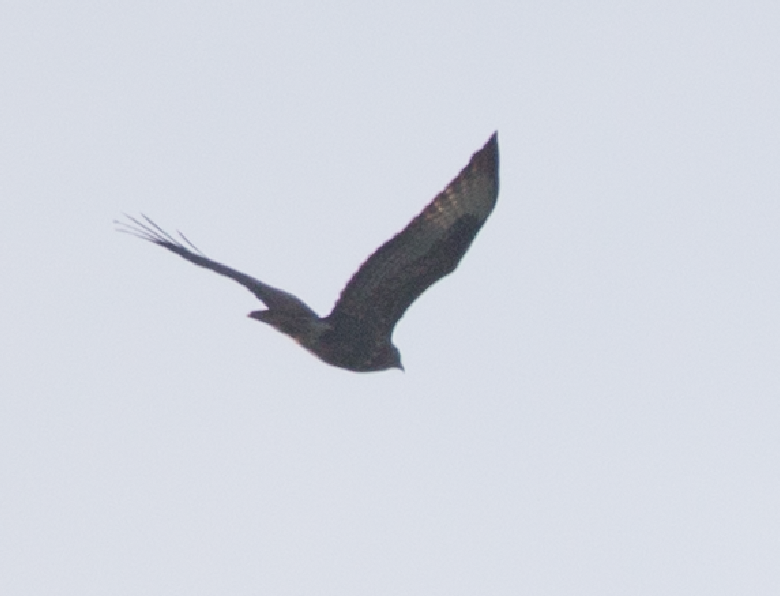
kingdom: Animalia
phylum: Chordata
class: Aves
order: Accipitriformes
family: Accipitridae
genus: Buteo
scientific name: Buteo buteo
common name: Common buzzard
